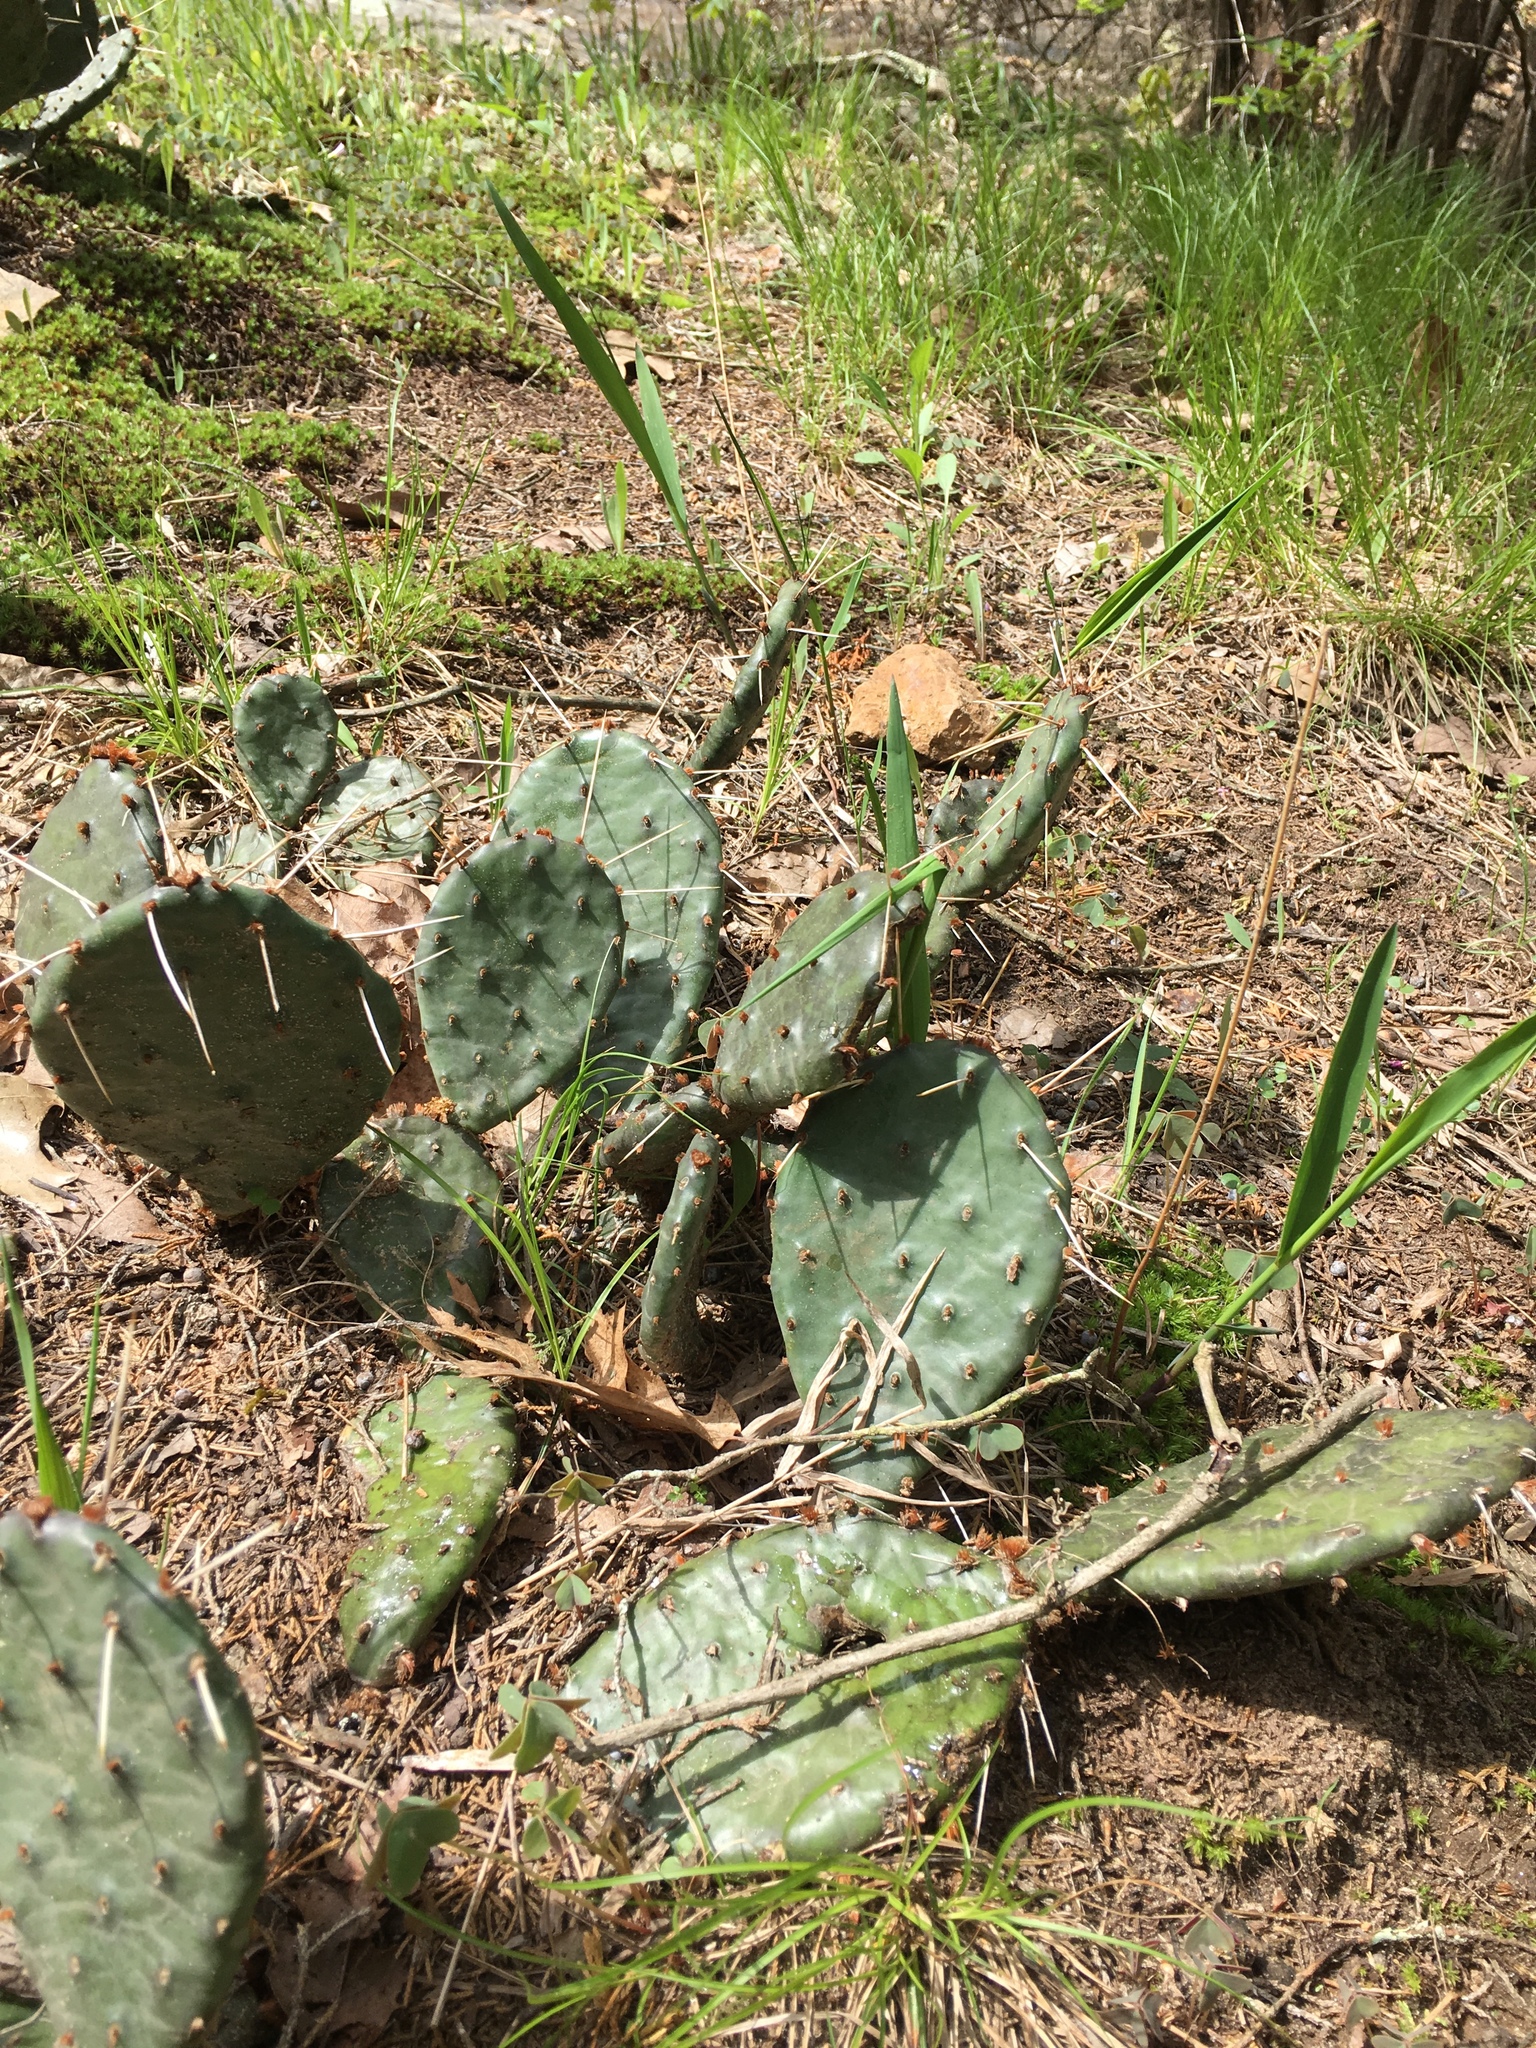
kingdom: Plantae
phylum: Tracheophyta
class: Magnoliopsida
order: Caryophyllales
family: Cactaceae
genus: Opuntia
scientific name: Opuntia humifusa
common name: Eastern prickly-pear
